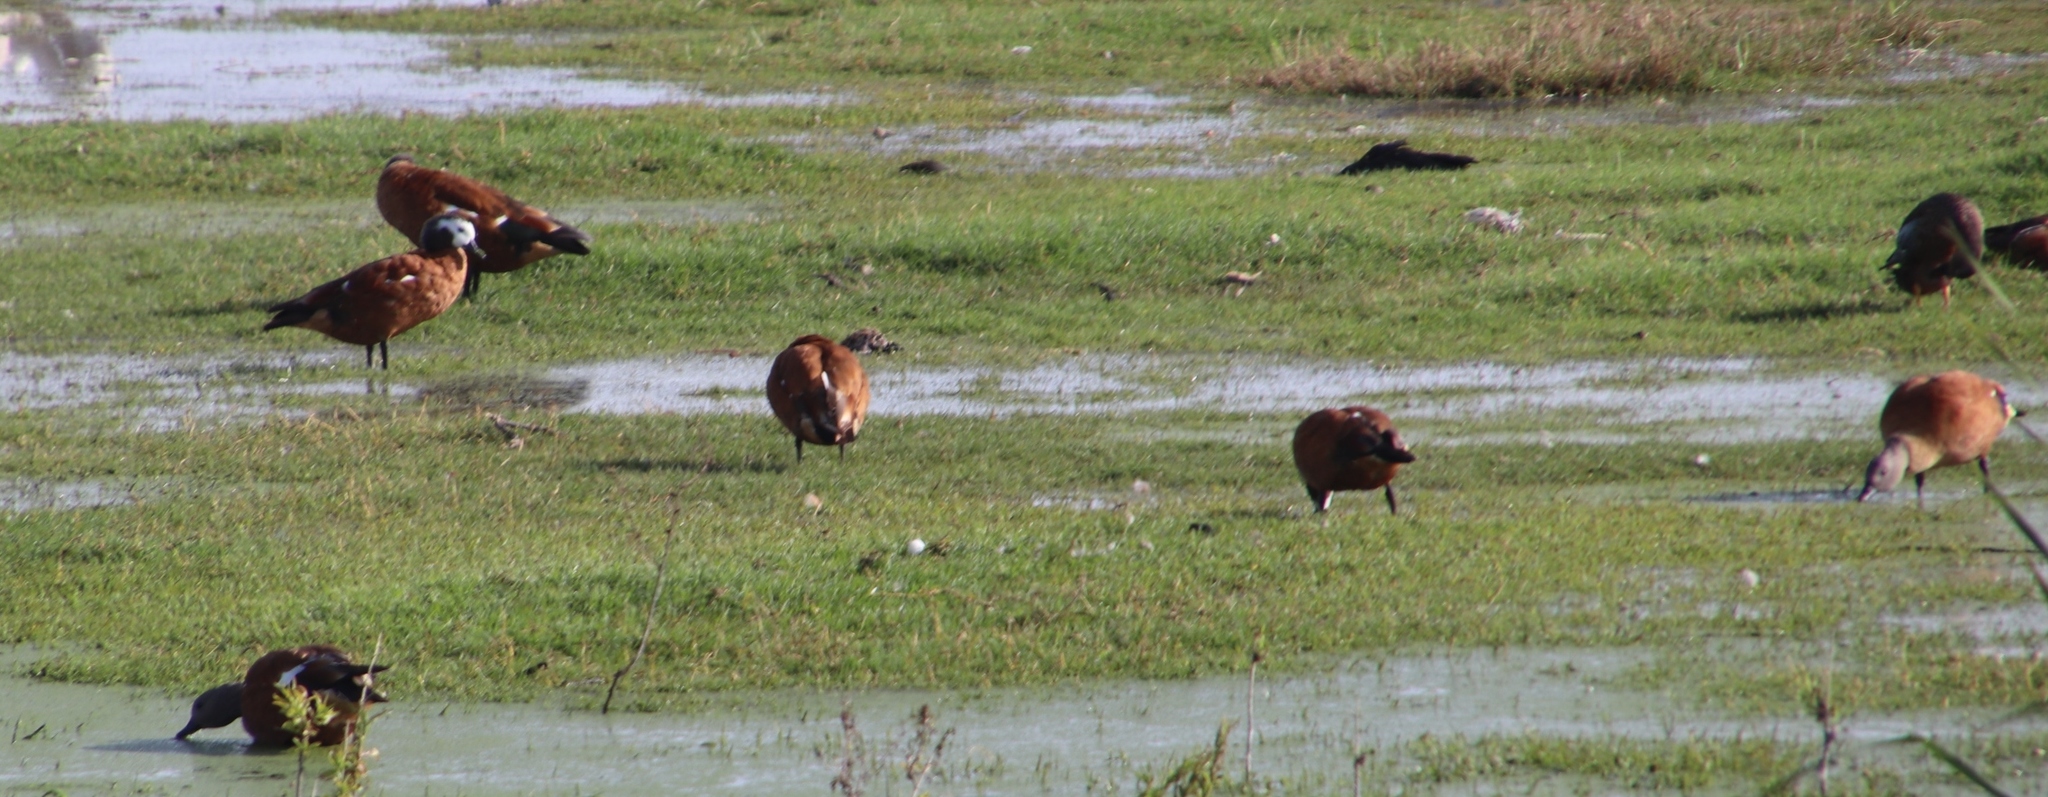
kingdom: Animalia
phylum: Chordata
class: Aves
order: Anseriformes
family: Anatidae
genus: Tadorna
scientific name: Tadorna cana
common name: South african shelduck
